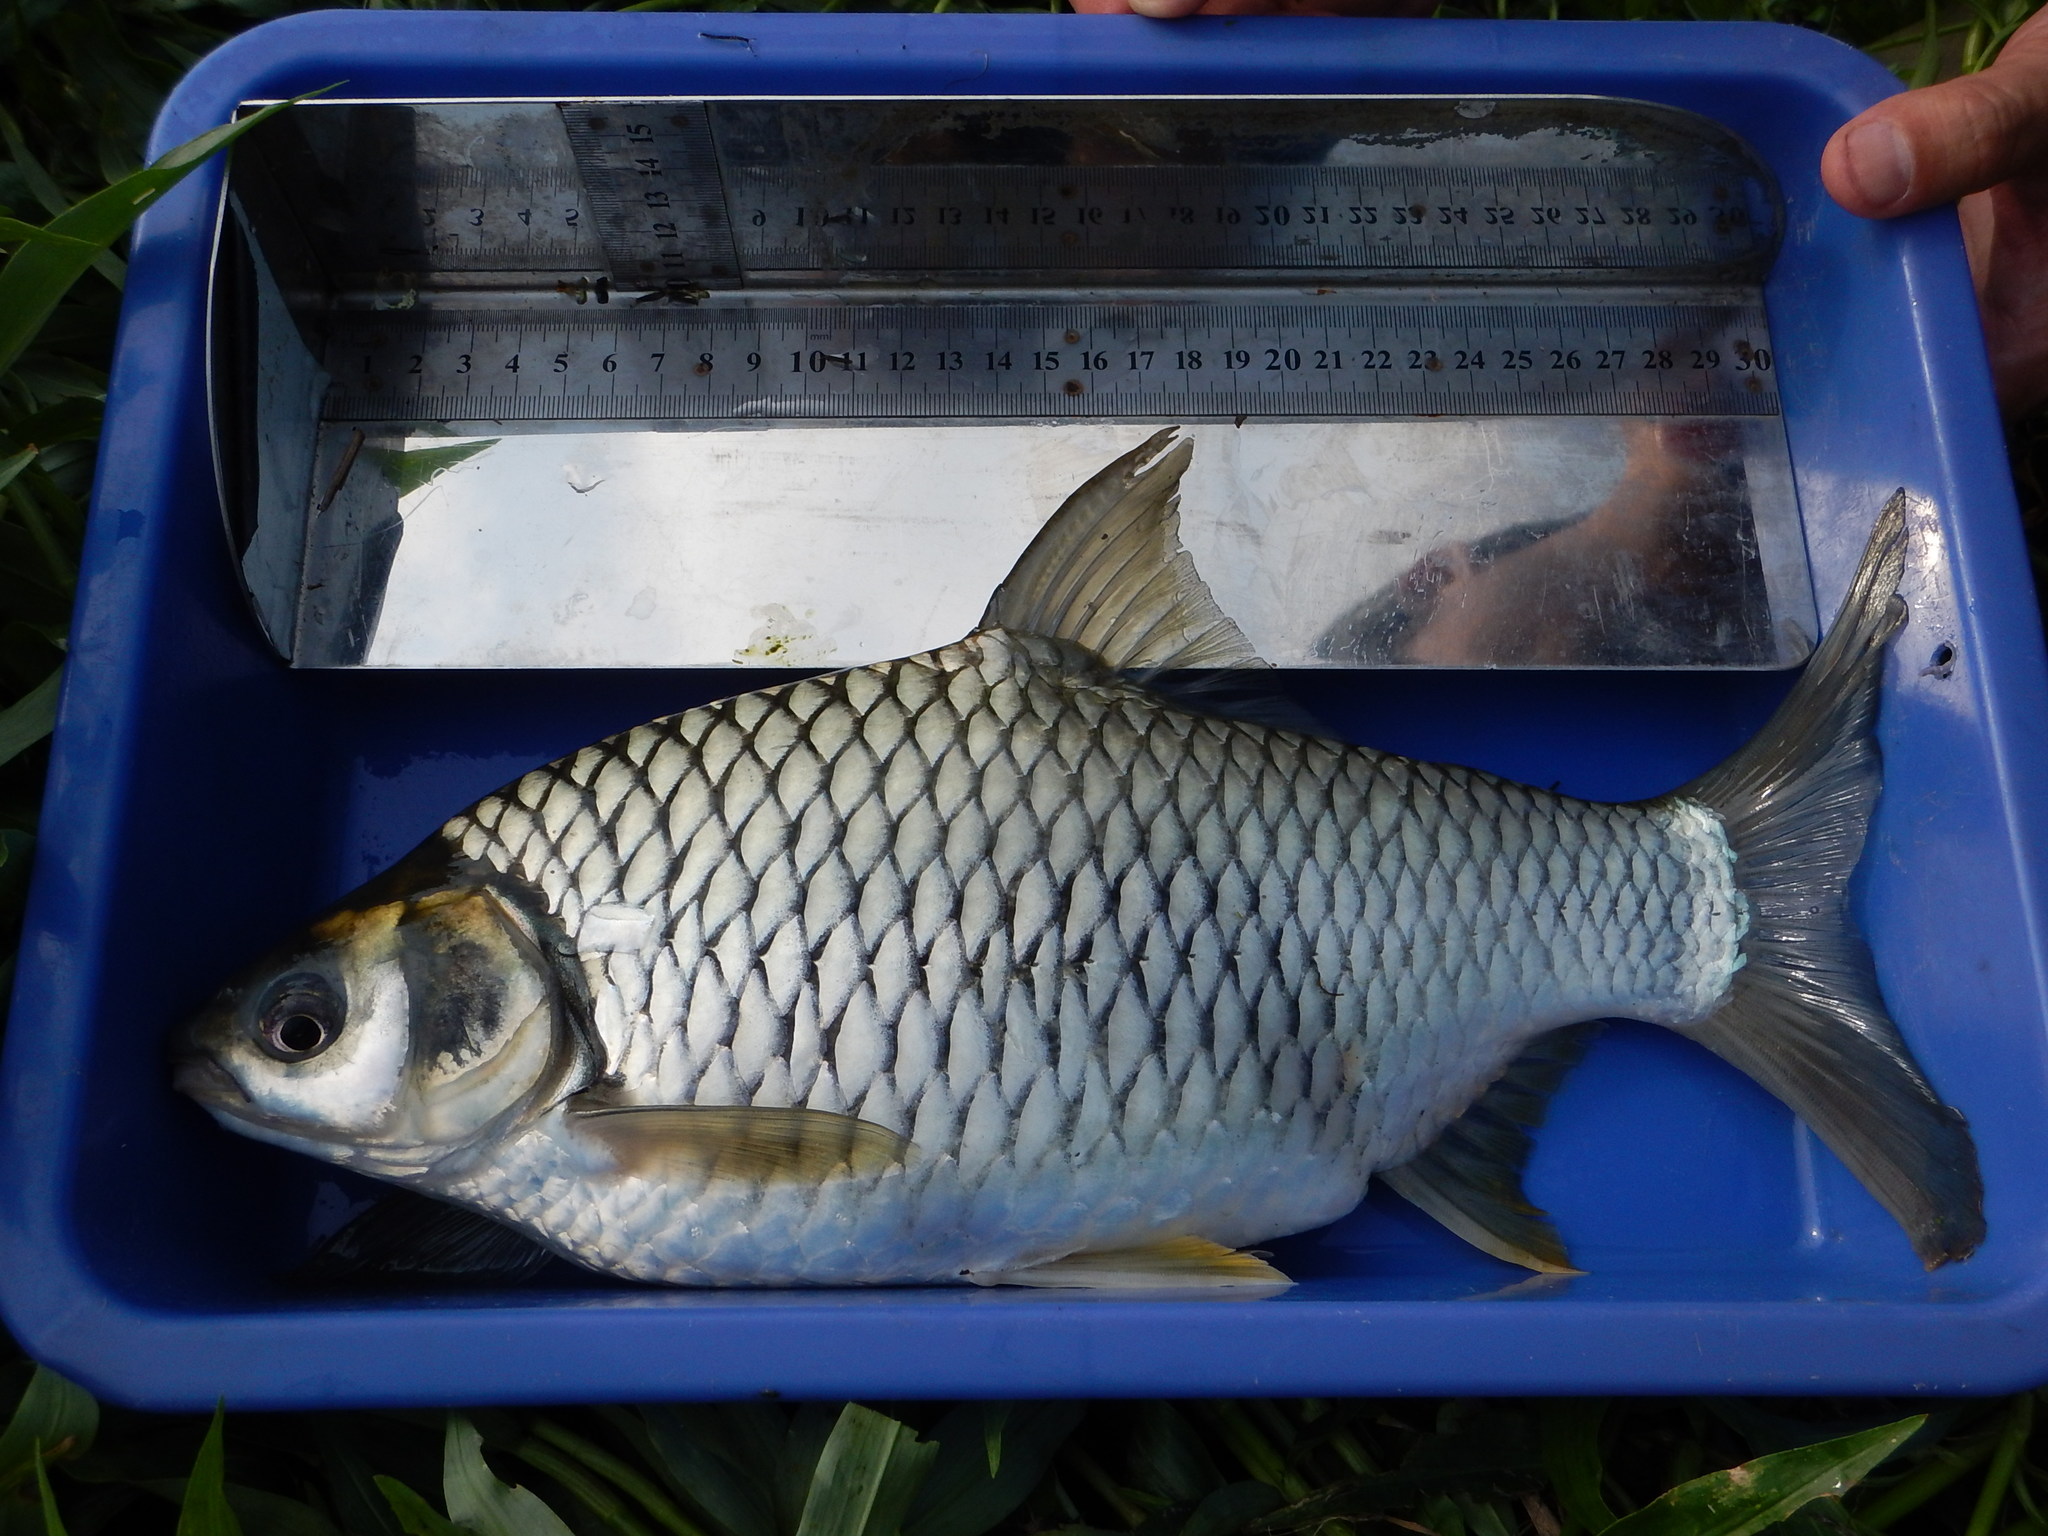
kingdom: Animalia
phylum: Chordata
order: Cypriniformes
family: Cyprinidae
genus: Hypsibarbus
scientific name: Hypsibarbus pierrei
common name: Yellow eyed silver barb
